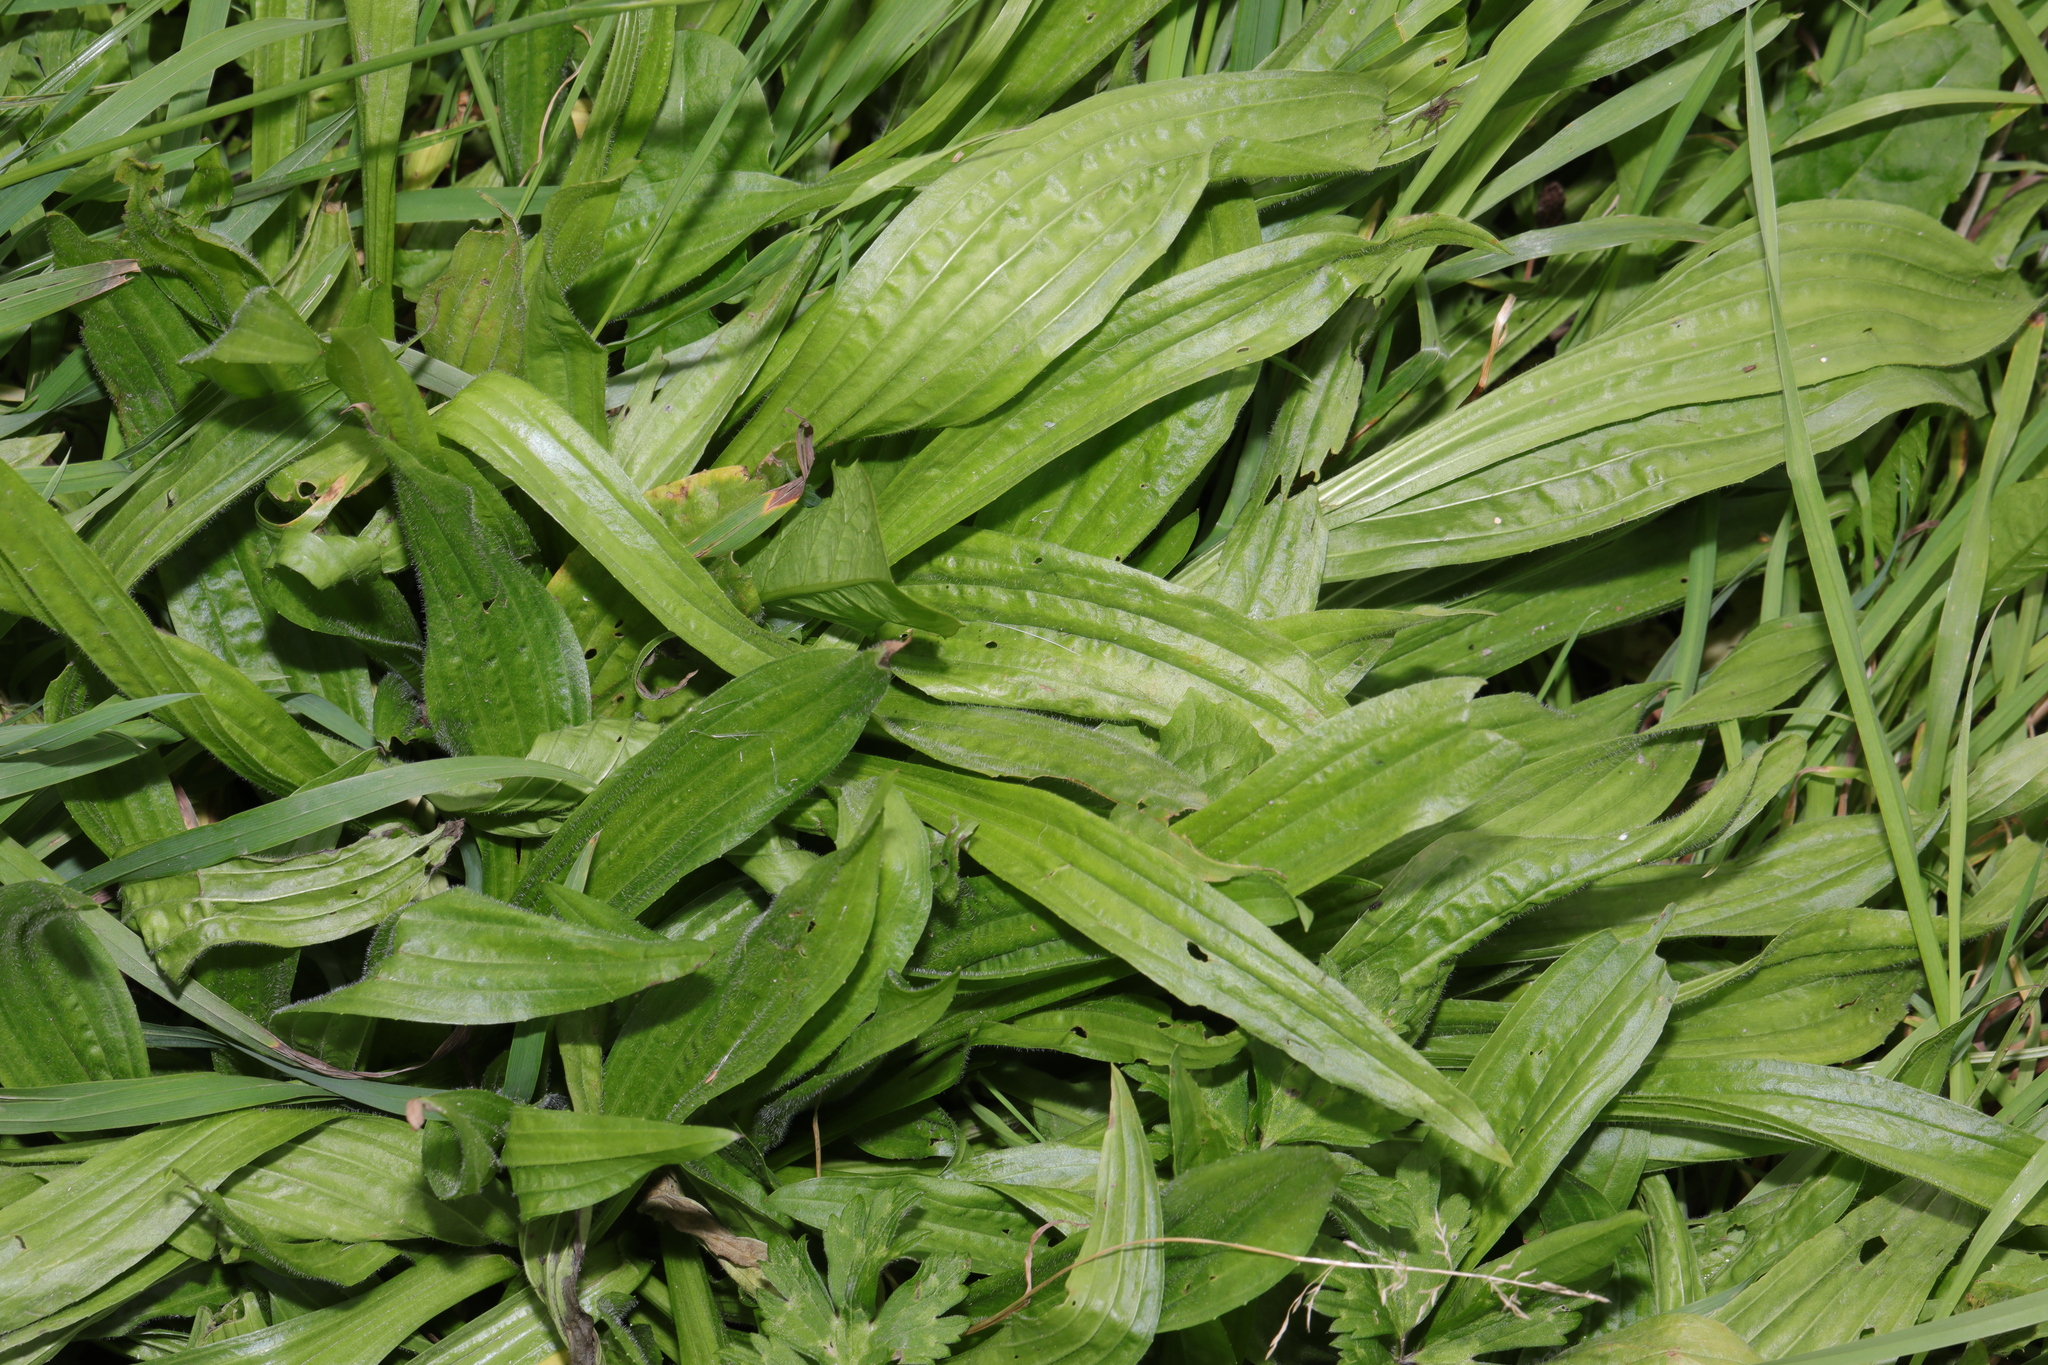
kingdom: Plantae
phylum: Tracheophyta
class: Magnoliopsida
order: Lamiales
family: Plantaginaceae
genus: Plantago
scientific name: Plantago lanceolata
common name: Ribwort plantain
